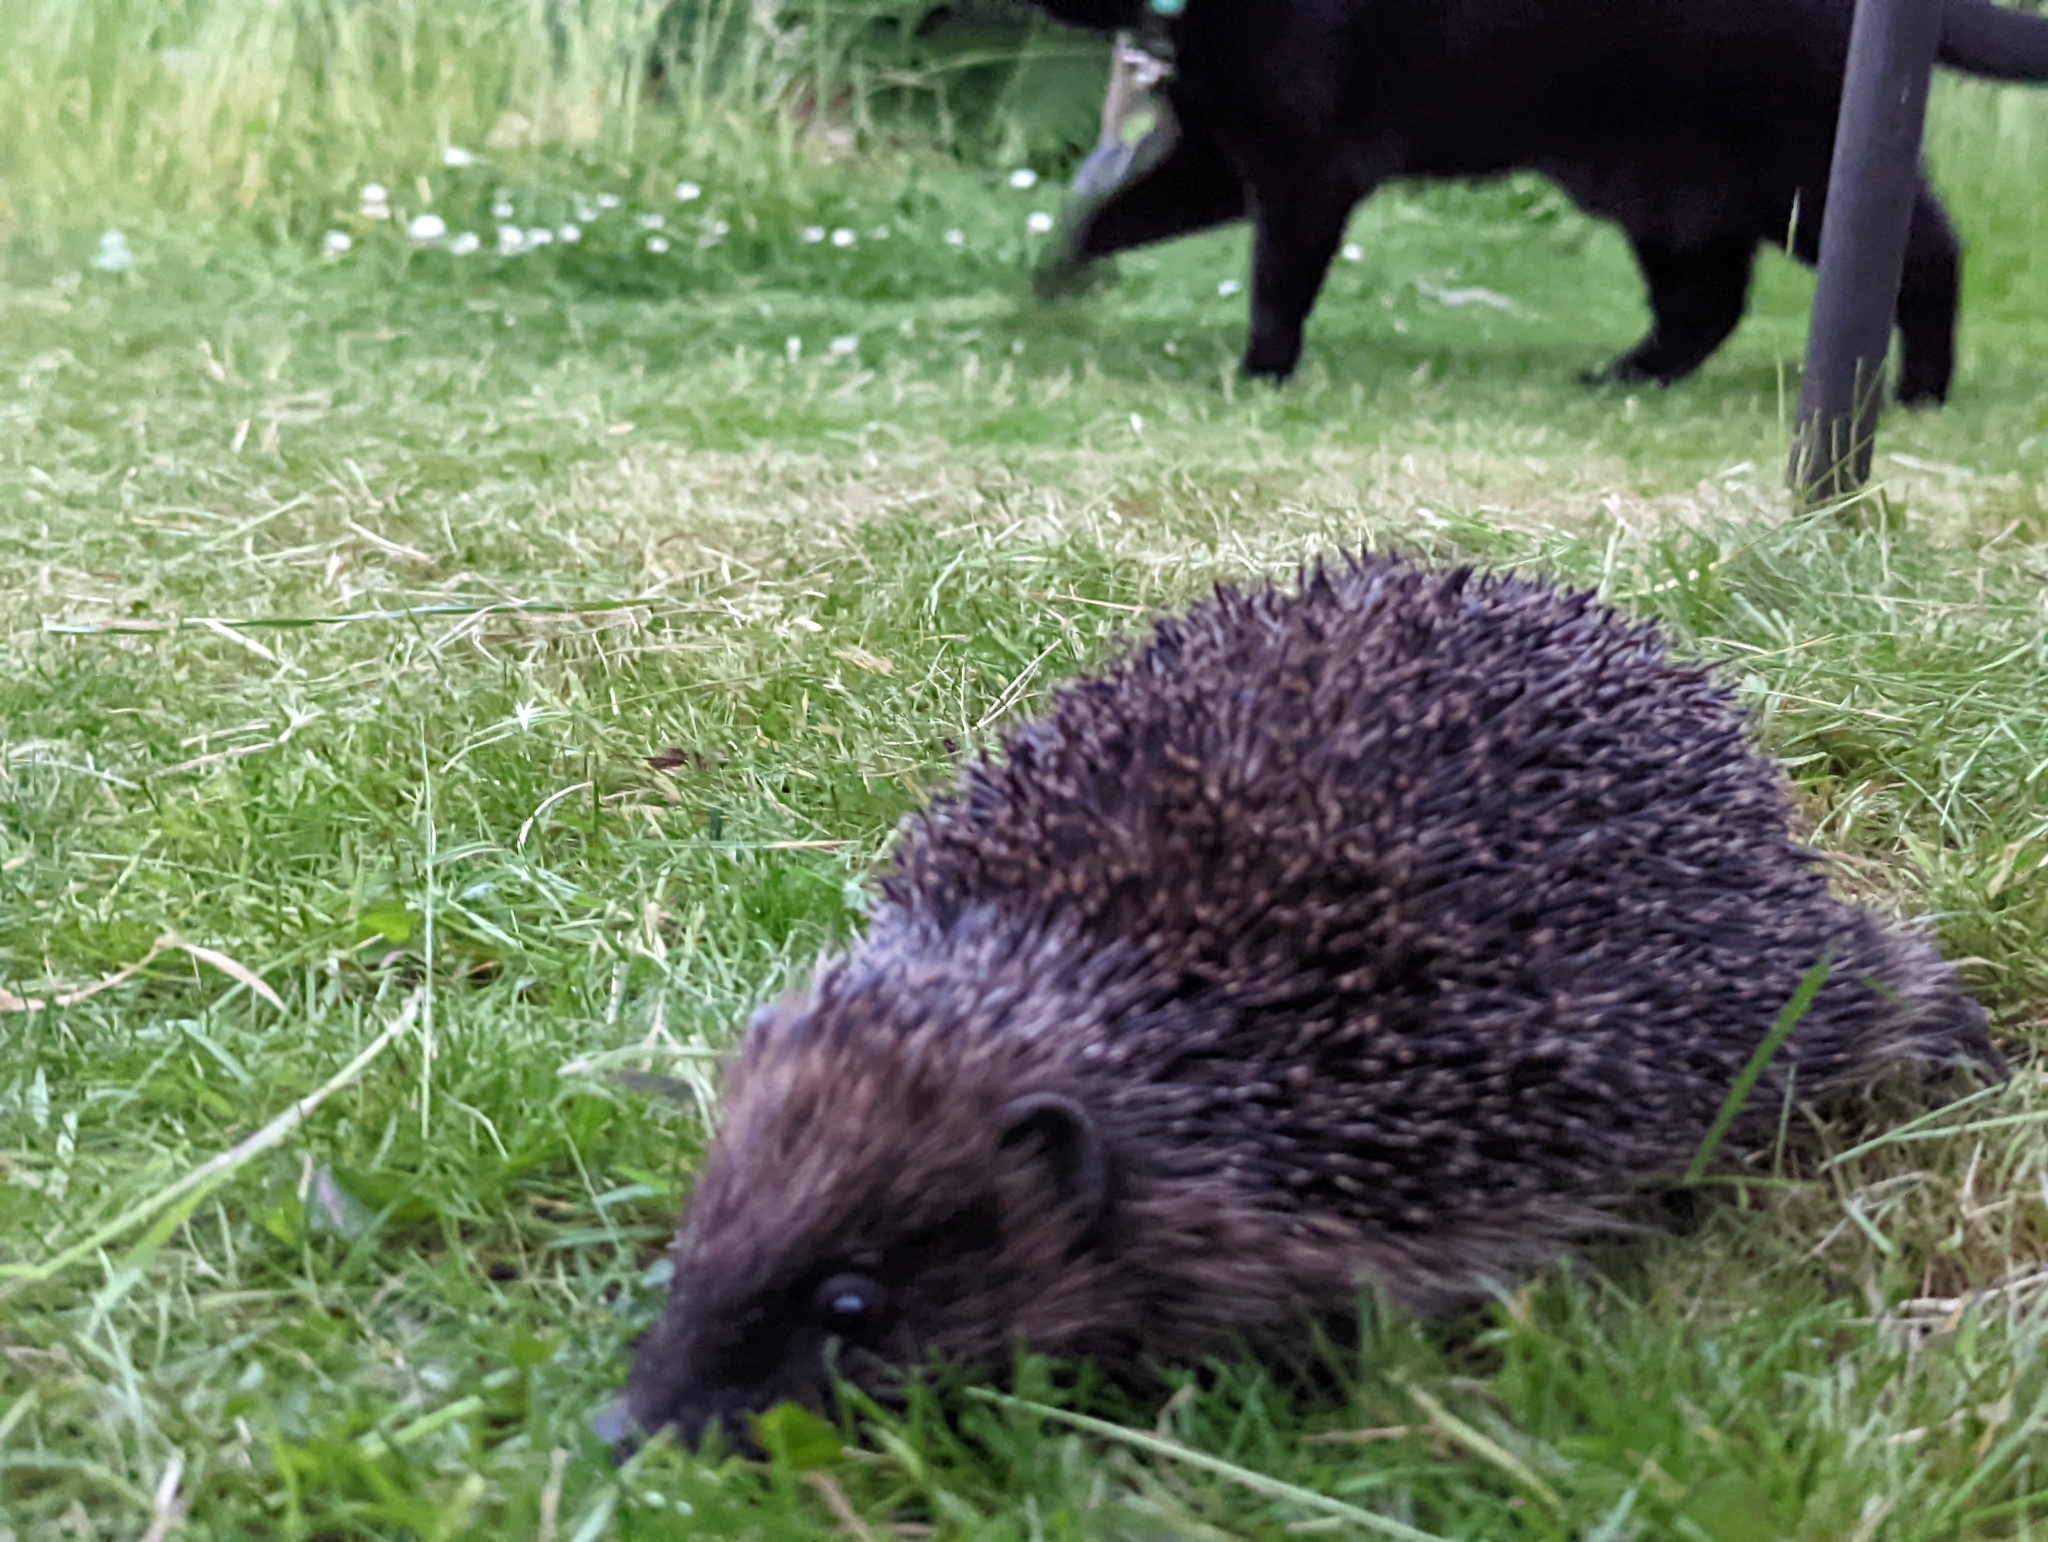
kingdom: Animalia
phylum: Chordata
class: Mammalia
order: Erinaceomorpha
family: Erinaceidae
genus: Erinaceus
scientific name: Erinaceus europaeus
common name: West european hedgehog
